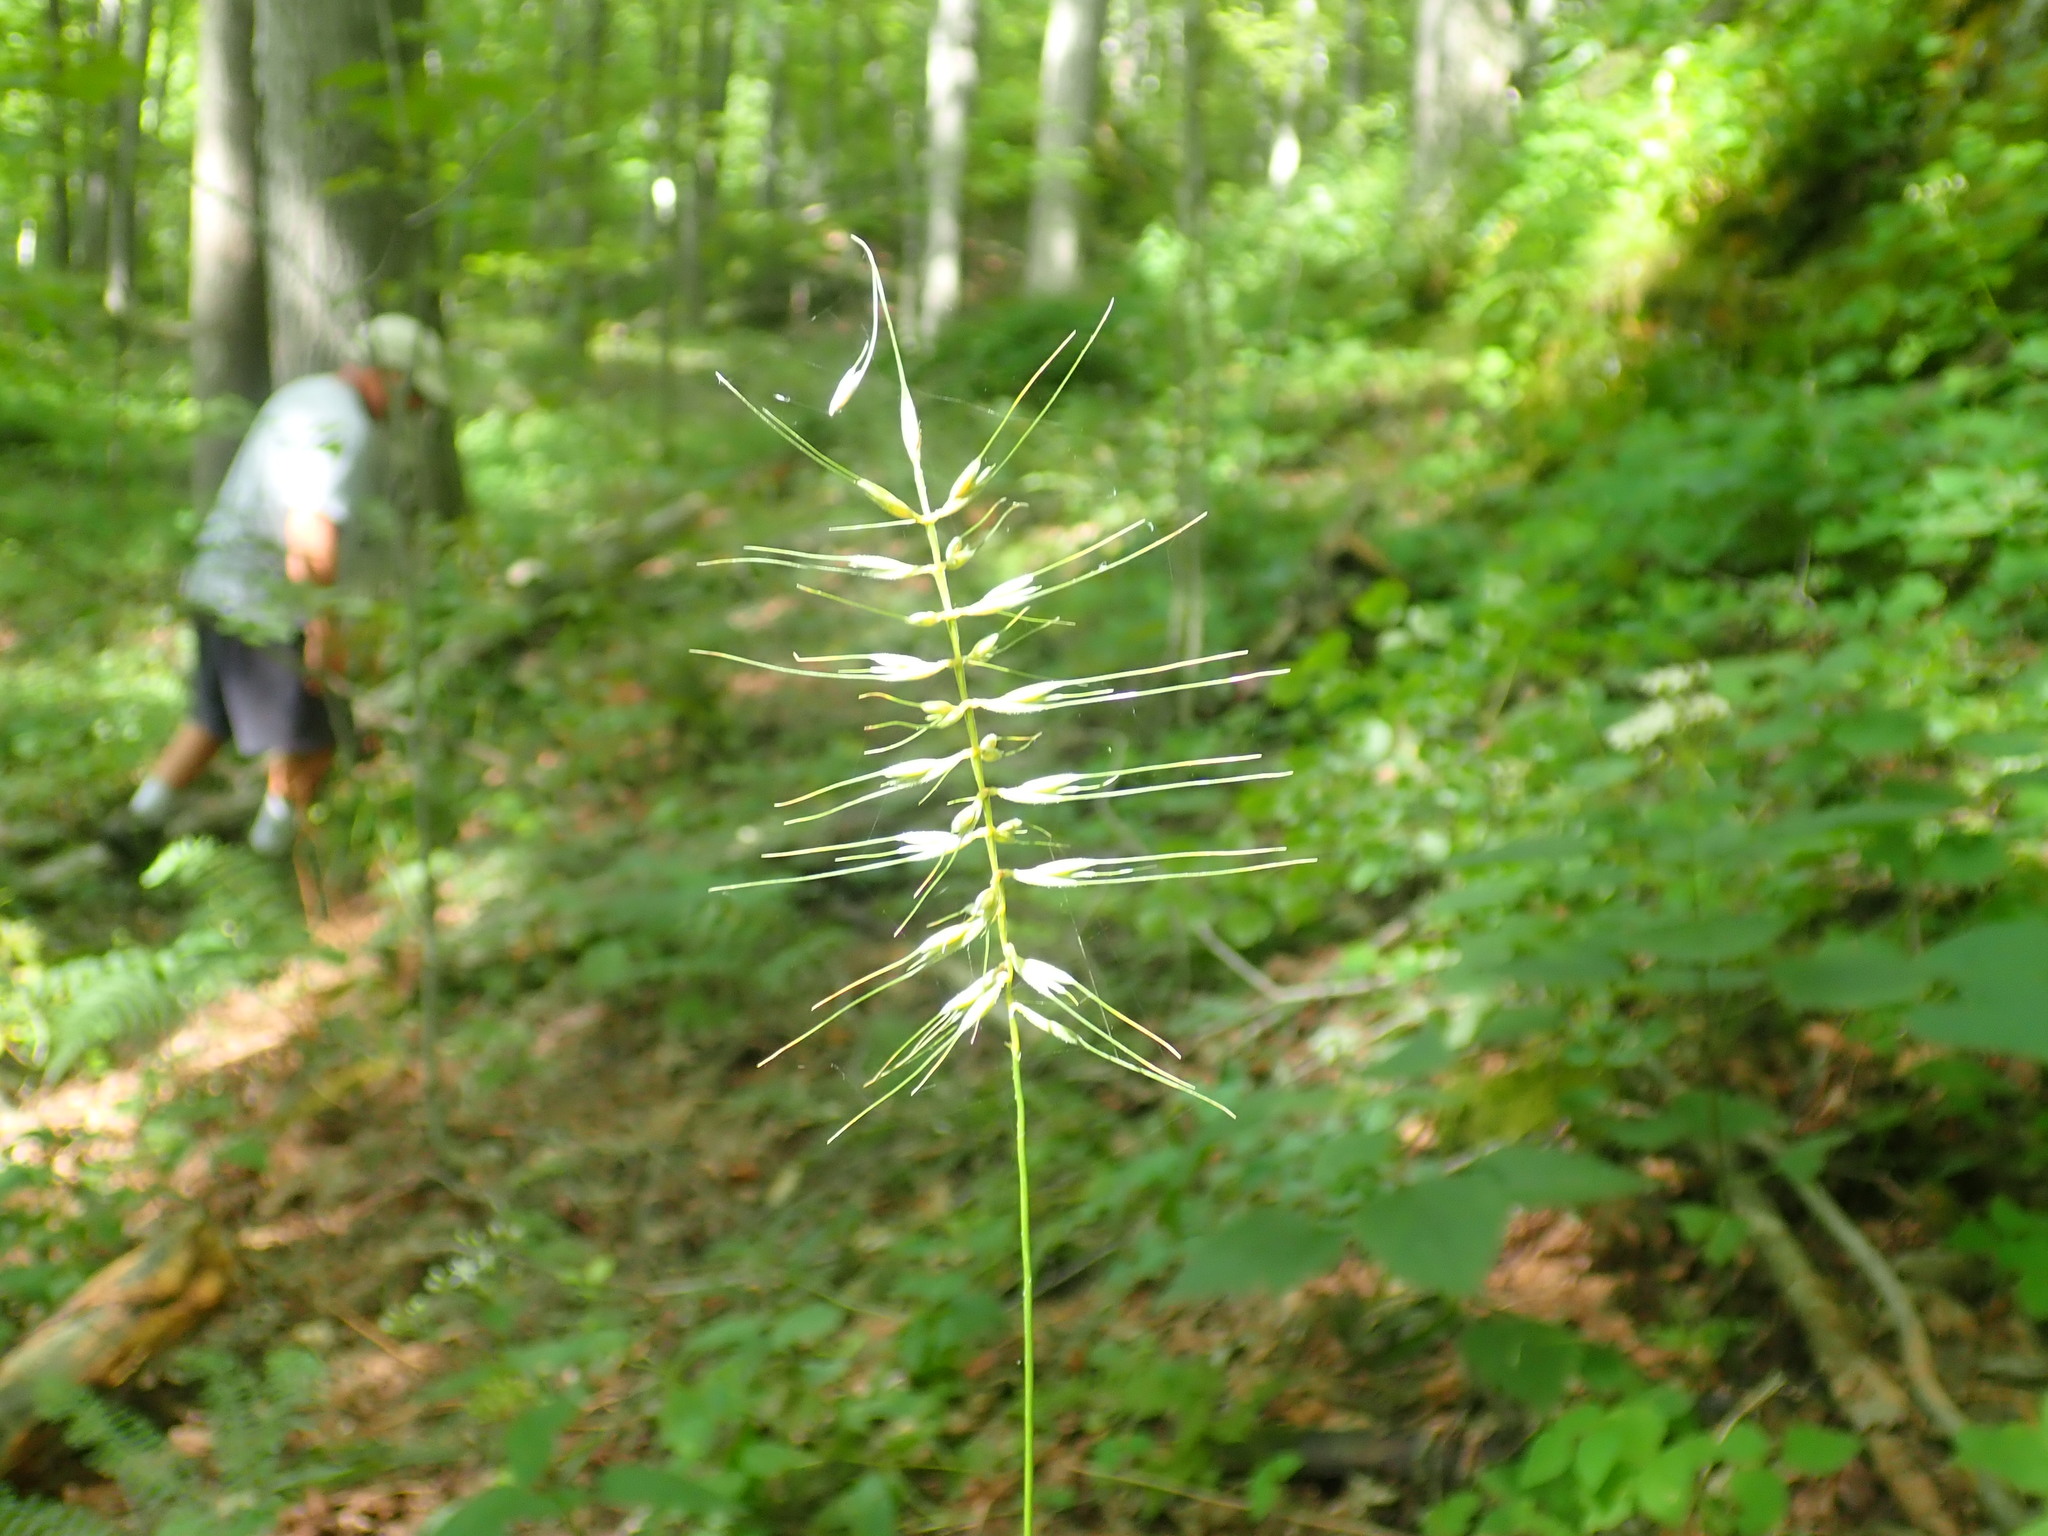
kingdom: Plantae
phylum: Tracheophyta
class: Liliopsida
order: Poales
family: Poaceae
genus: Elymus
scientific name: Elymus hystrix
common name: Bottlebrush grass
